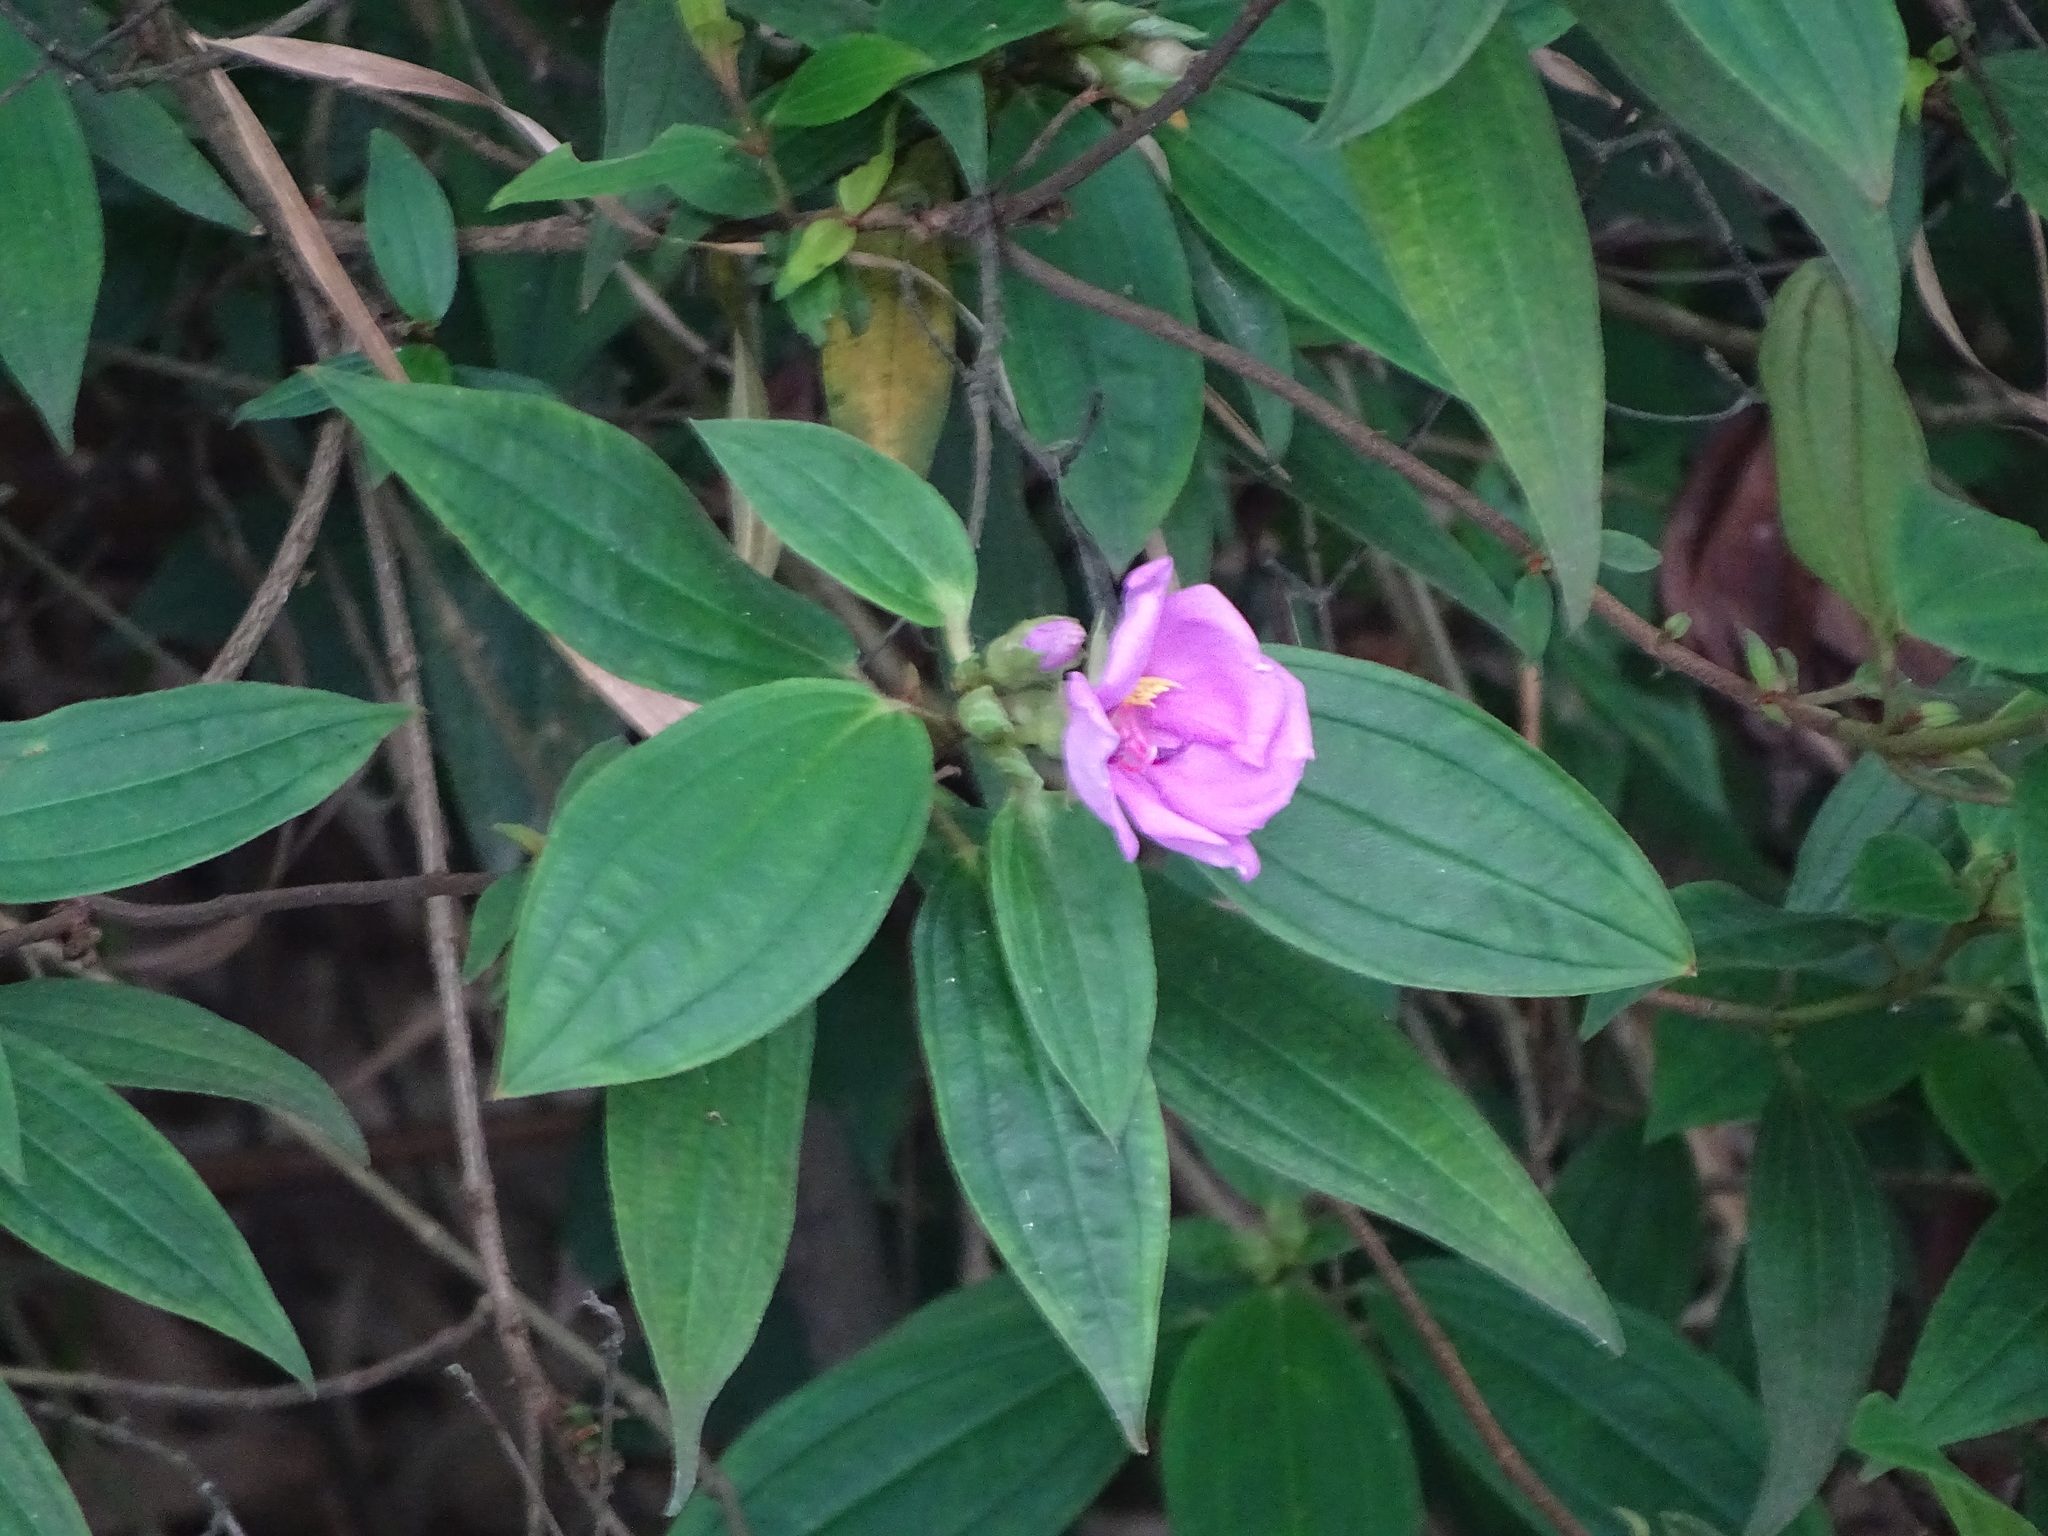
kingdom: Plantae
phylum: Tracheophyta
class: Magnoliopsida
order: Myrtales
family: Melastomataceae
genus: Melastoma
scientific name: Melastoma malabathricum
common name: Indian-rhododendron
